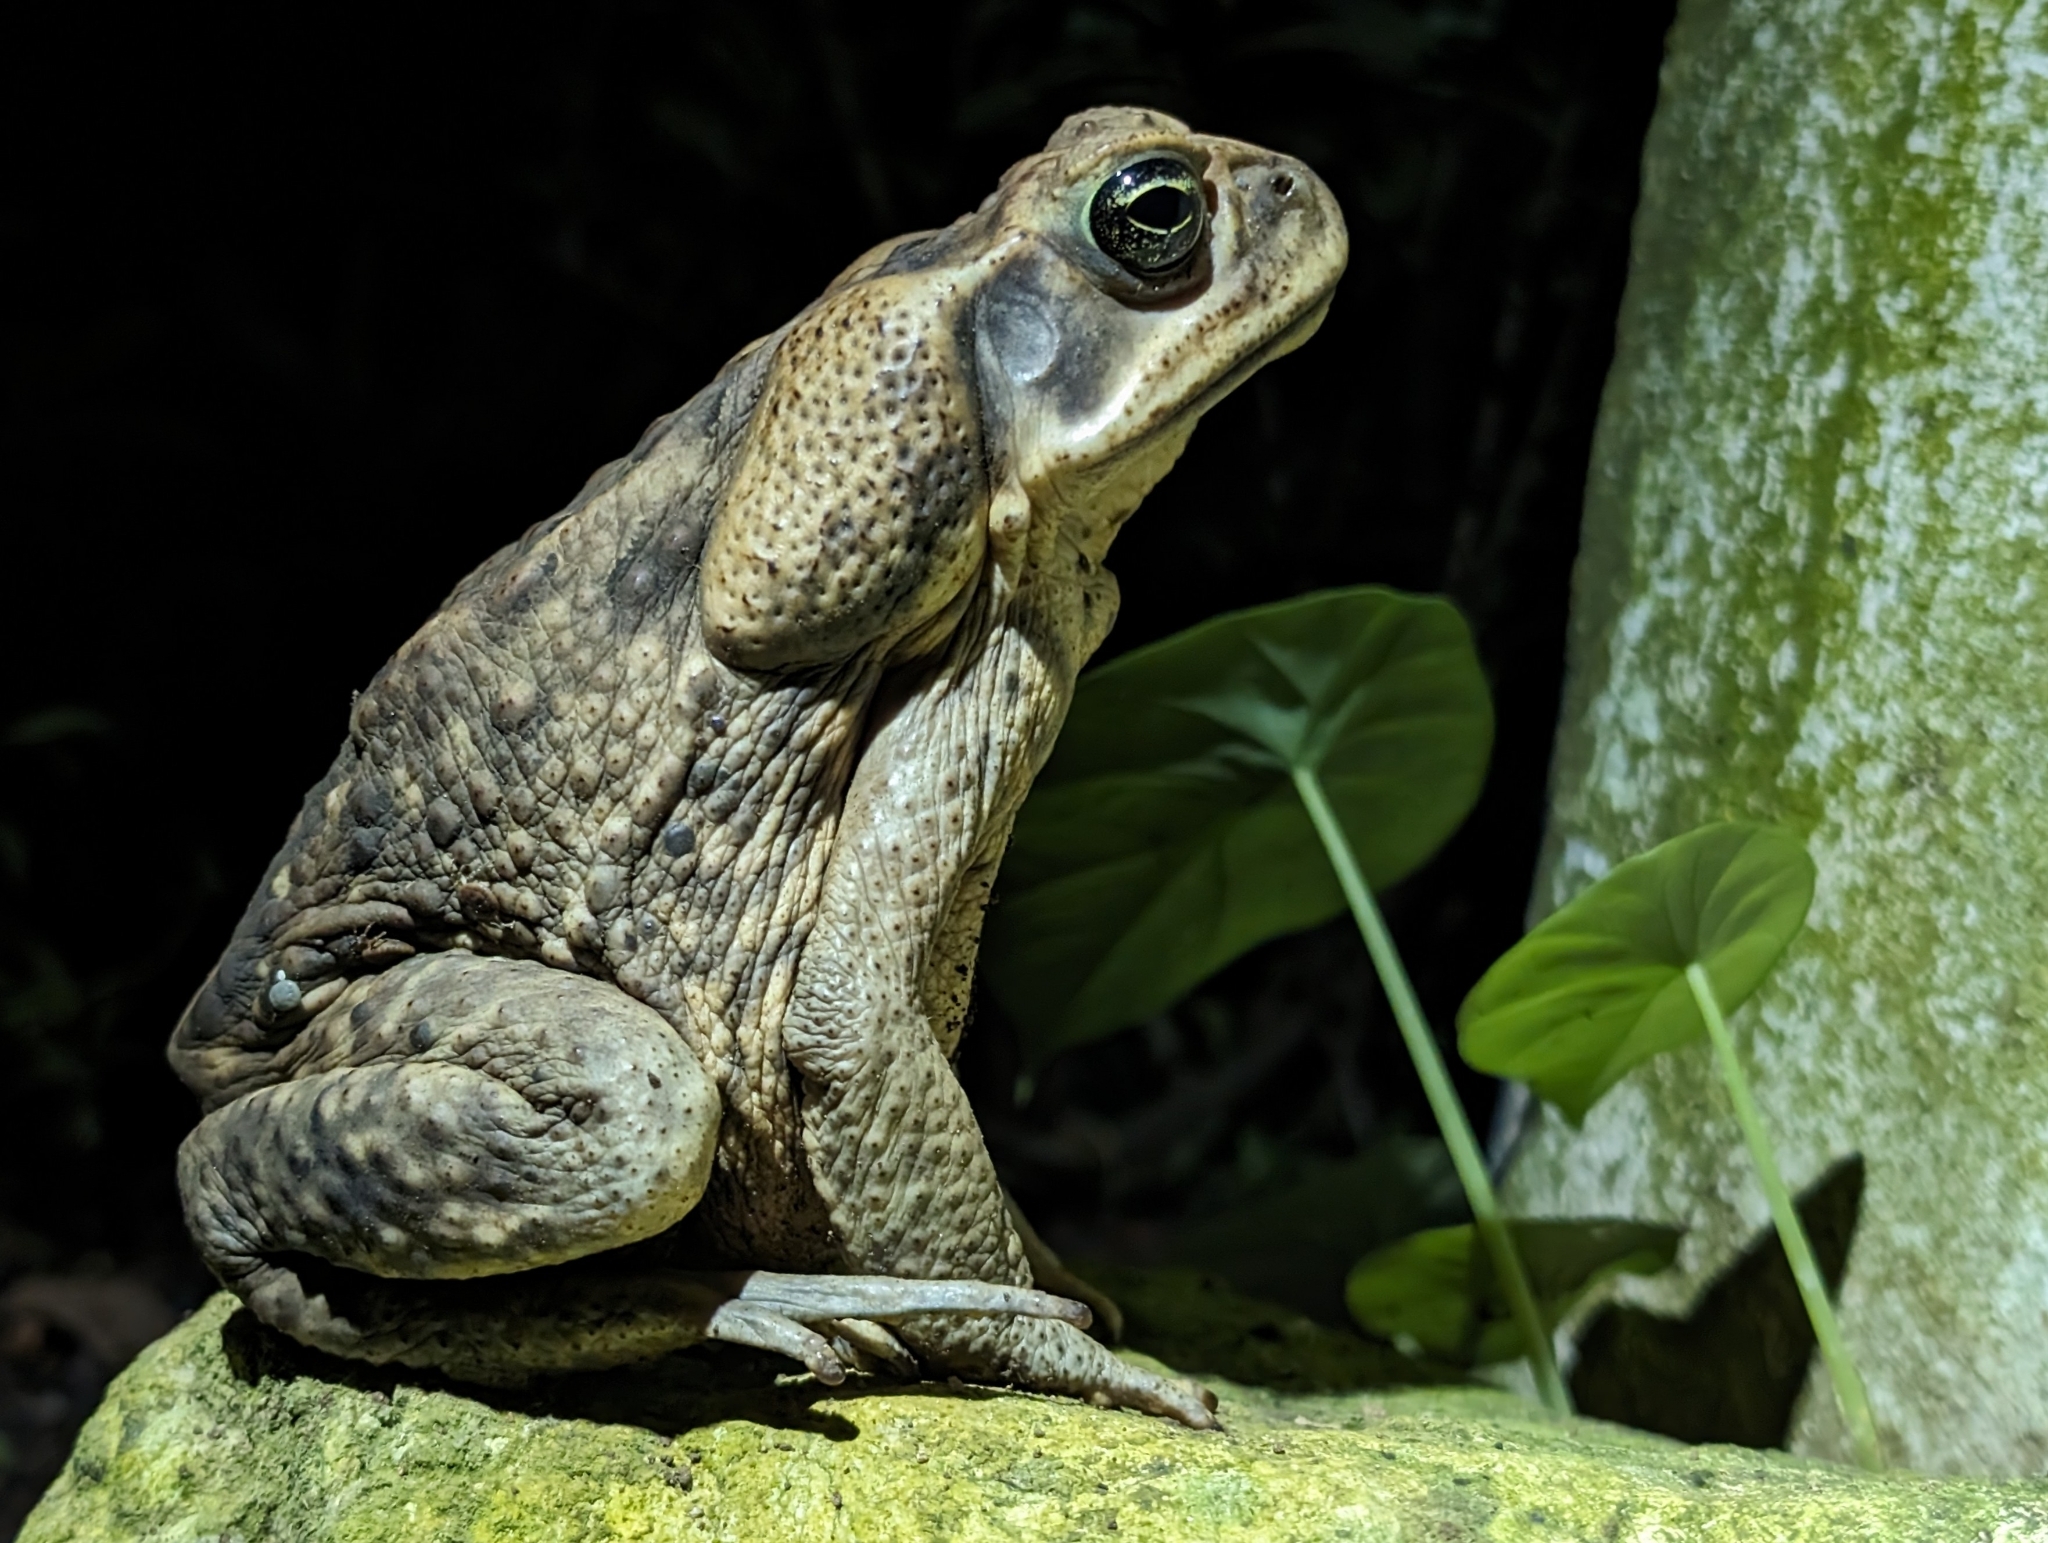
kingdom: Animalia
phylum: Chordata
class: Amphibia
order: Anura
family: Bufonidae
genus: Rhinella
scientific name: Rhinella horribilis
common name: Mesoamerican cane toad
